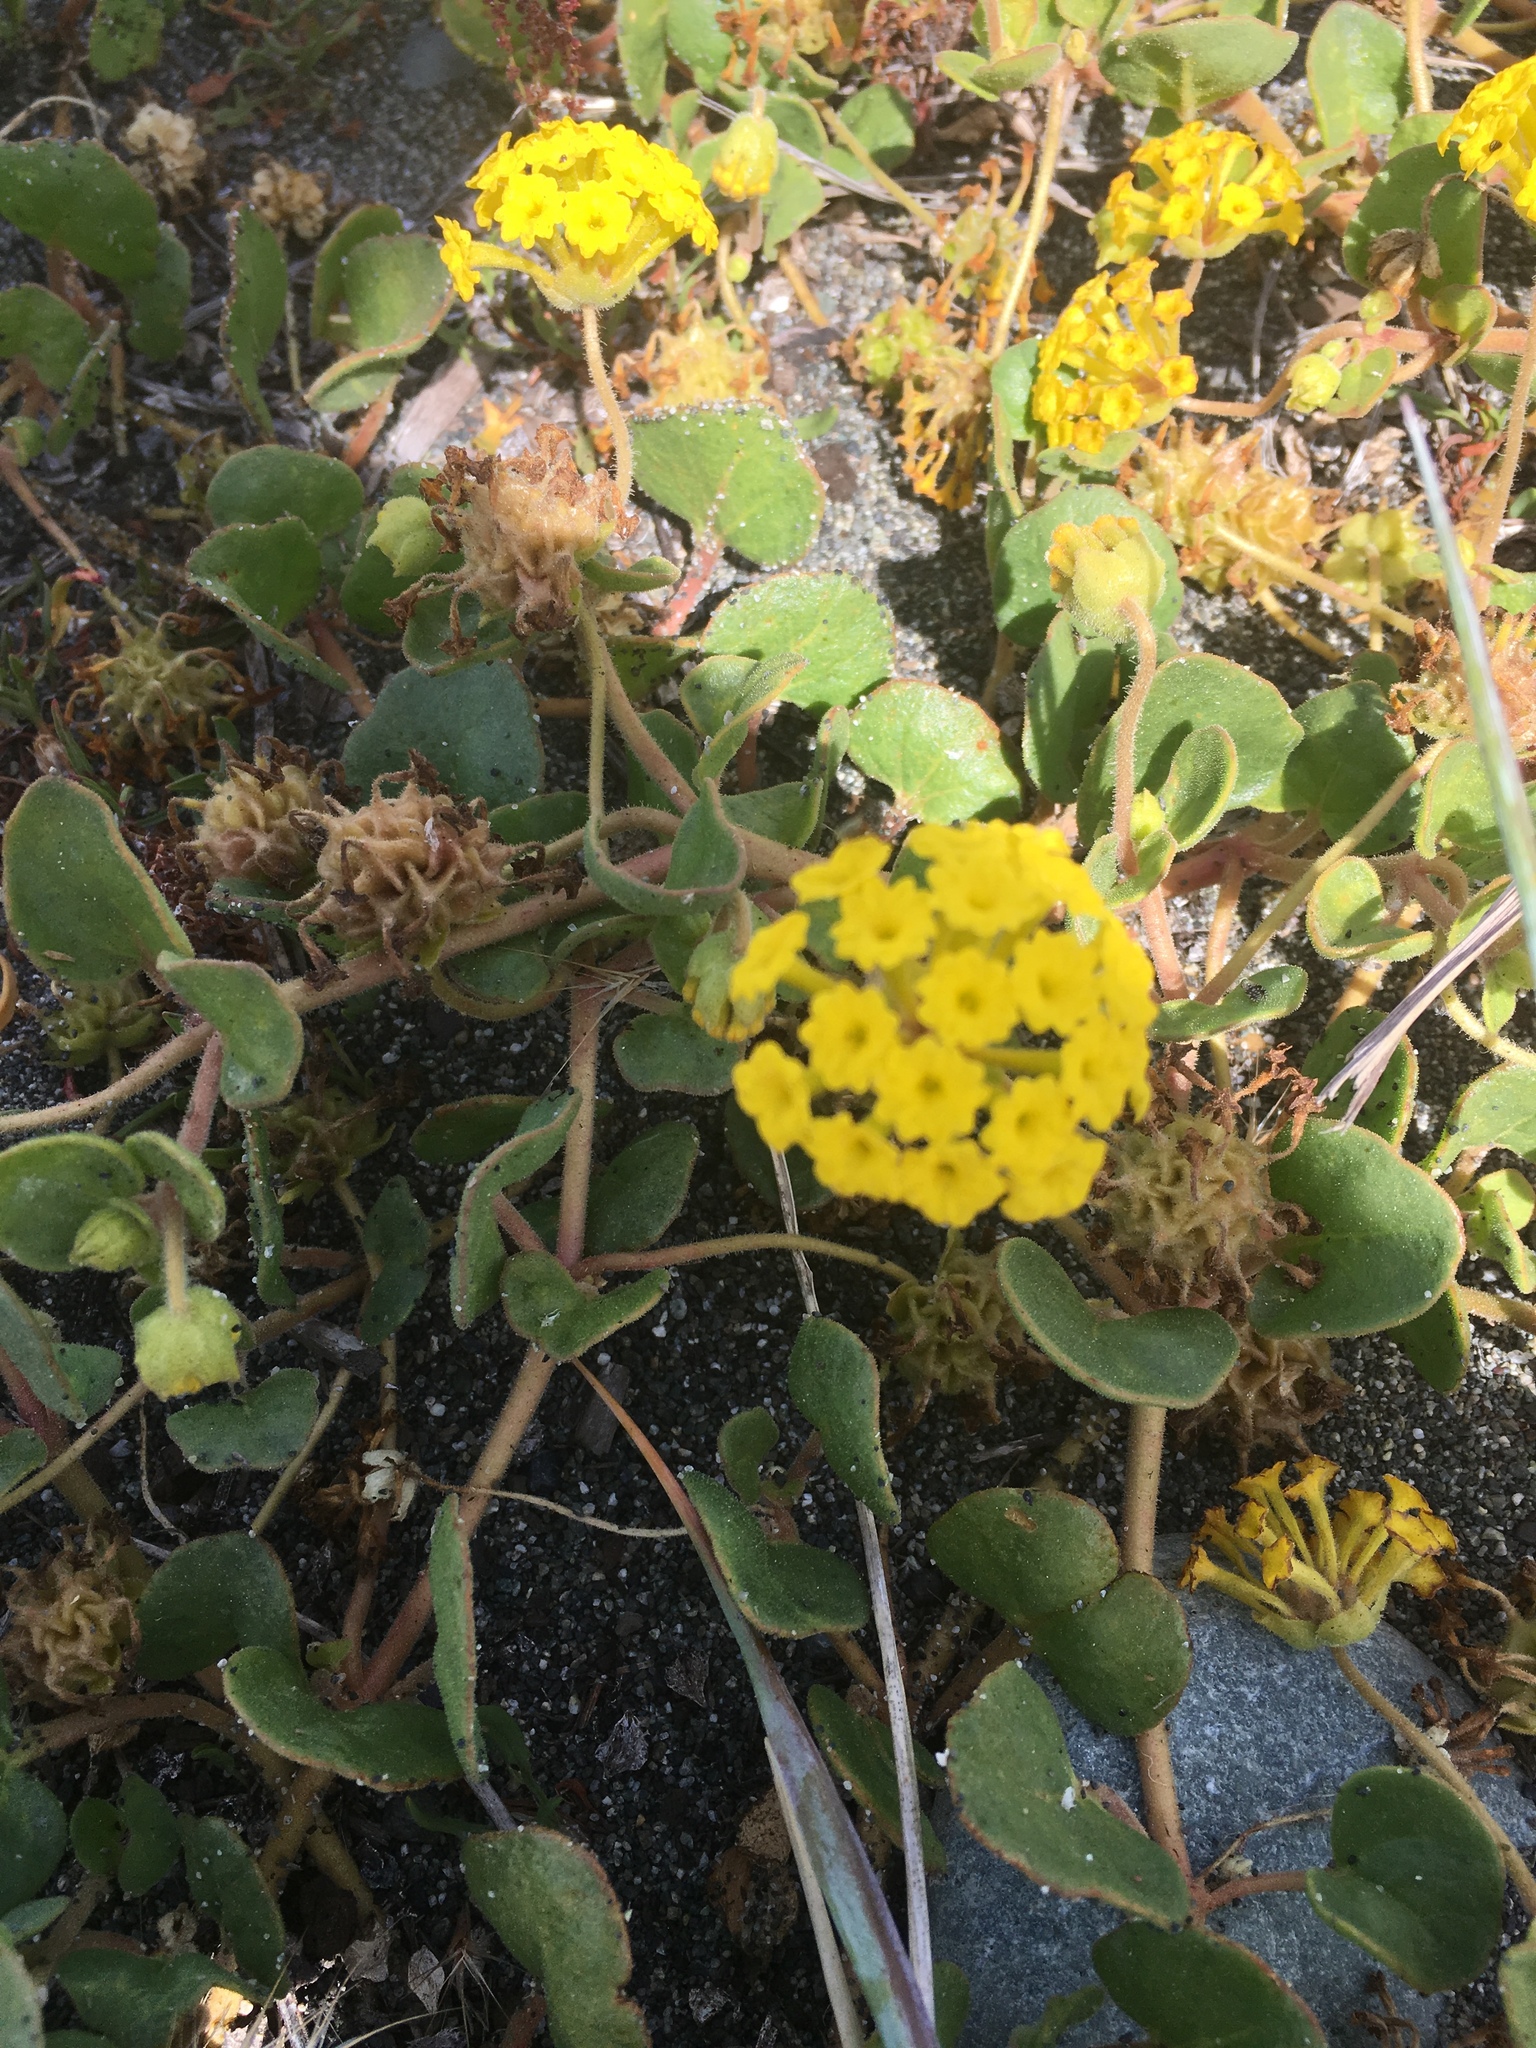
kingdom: Plantae
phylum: Tracheophyta
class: Magnoliopsida
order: Caryophyllales
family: Nyctaginaceae
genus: Abronia
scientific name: Abronia latifolia
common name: Yellow sand-verbena
